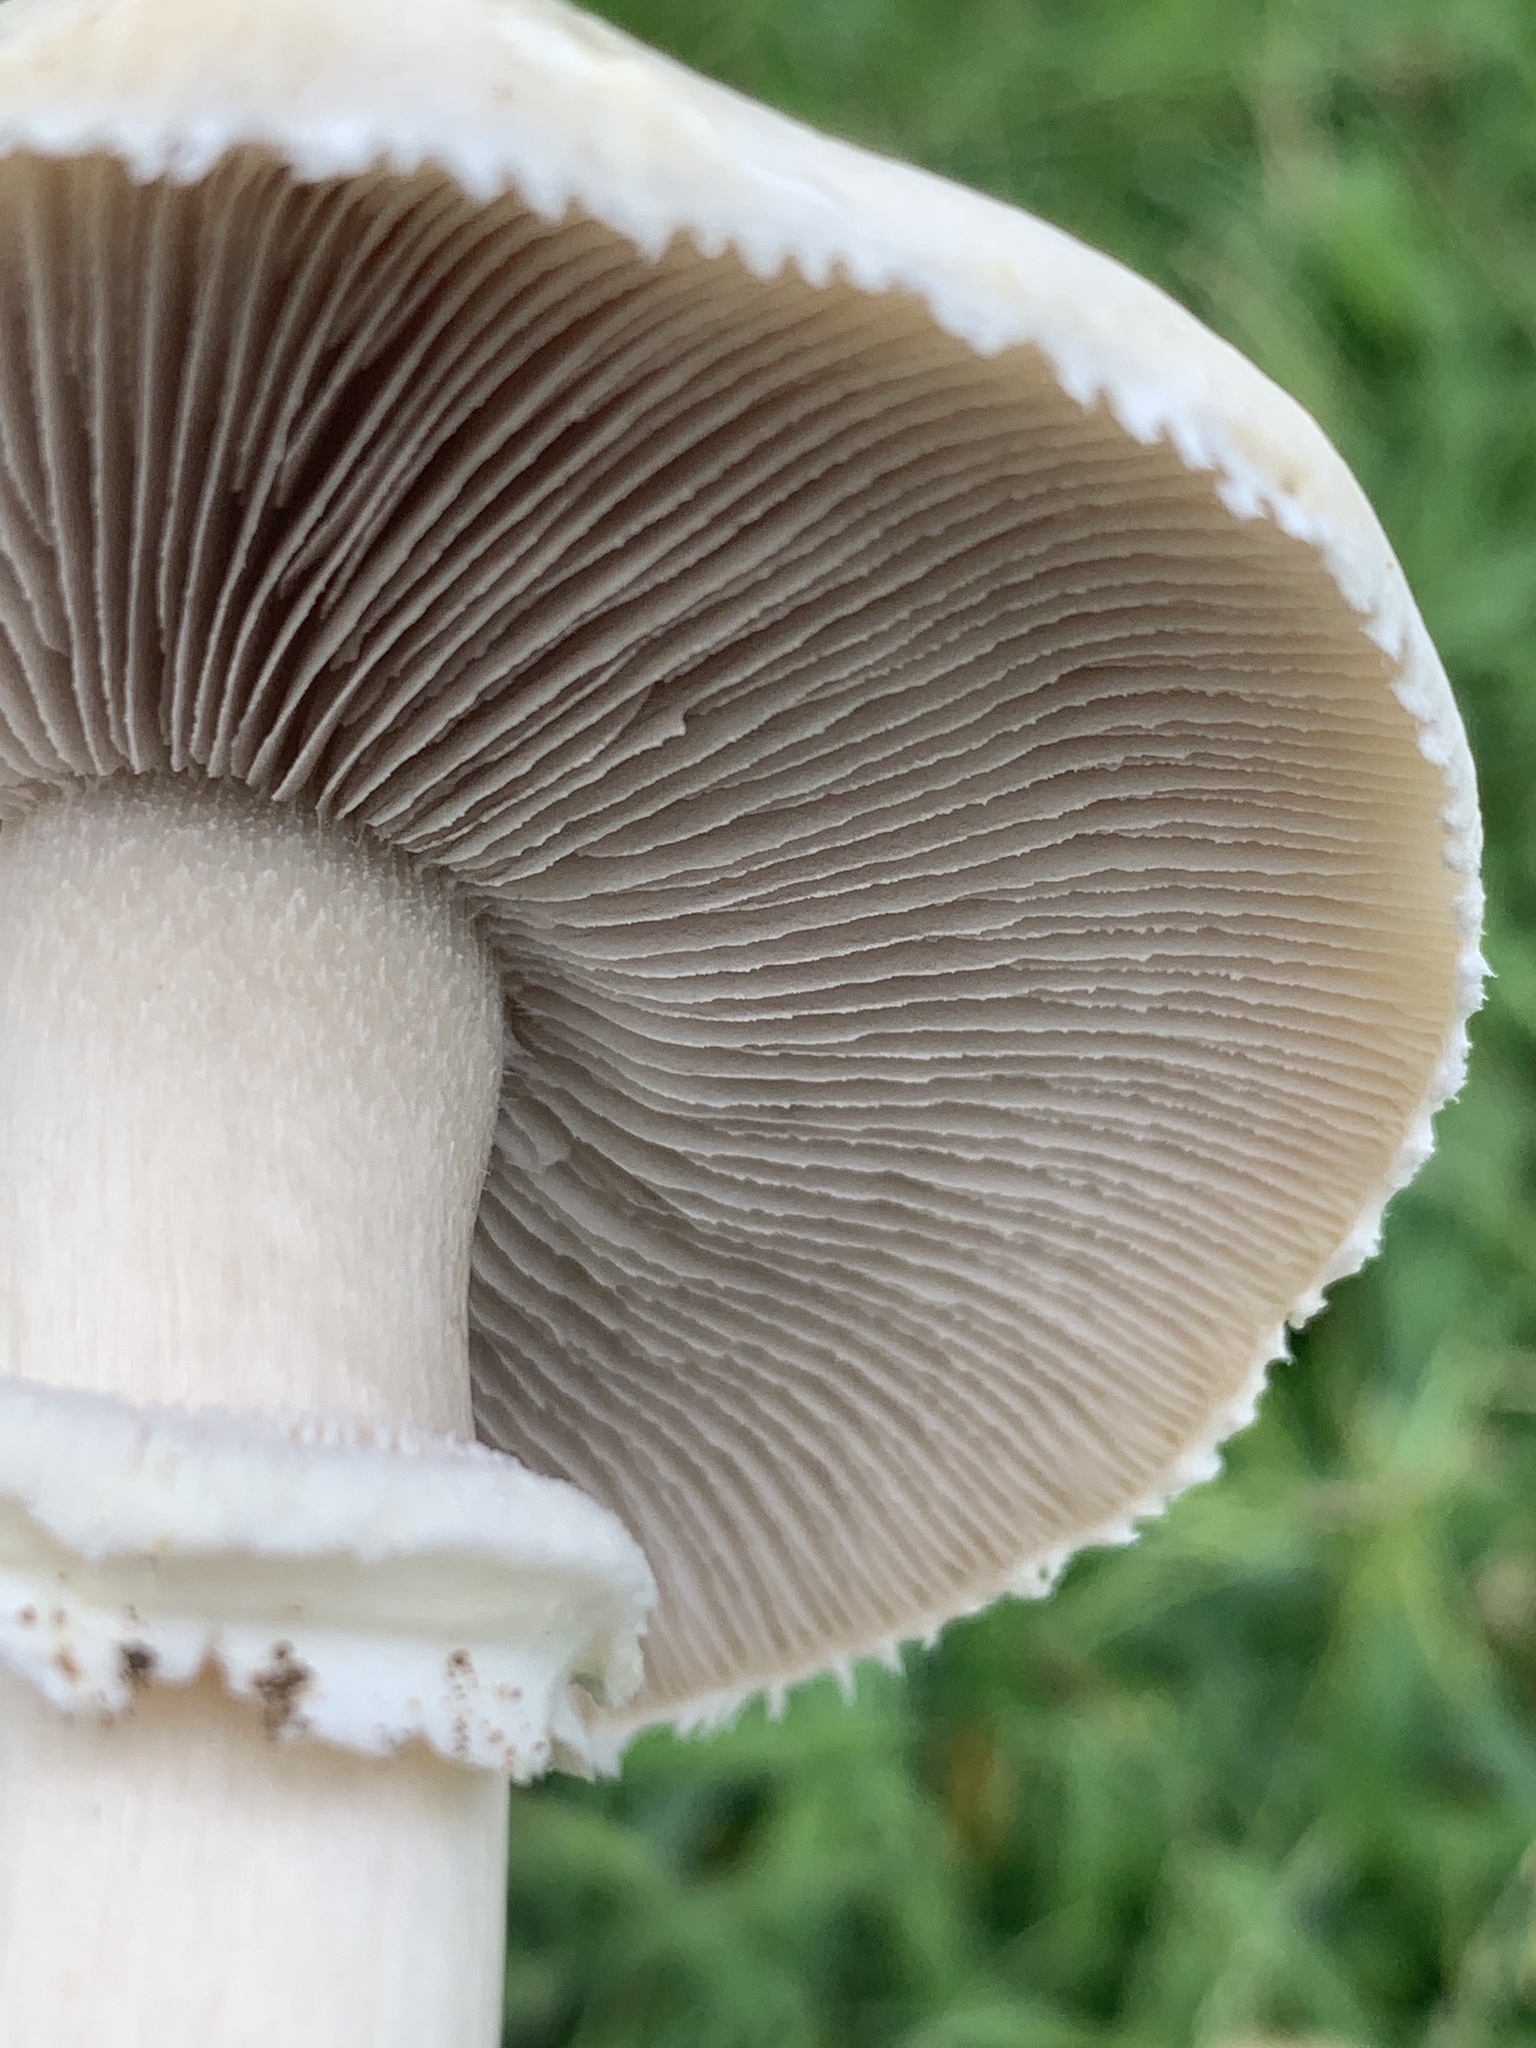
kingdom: Fungi
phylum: Basidiomycota
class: Agaricomycetes
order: Agaricales
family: Hymenogastraceae
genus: Psilocybe
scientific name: Psilocybe coronilla
